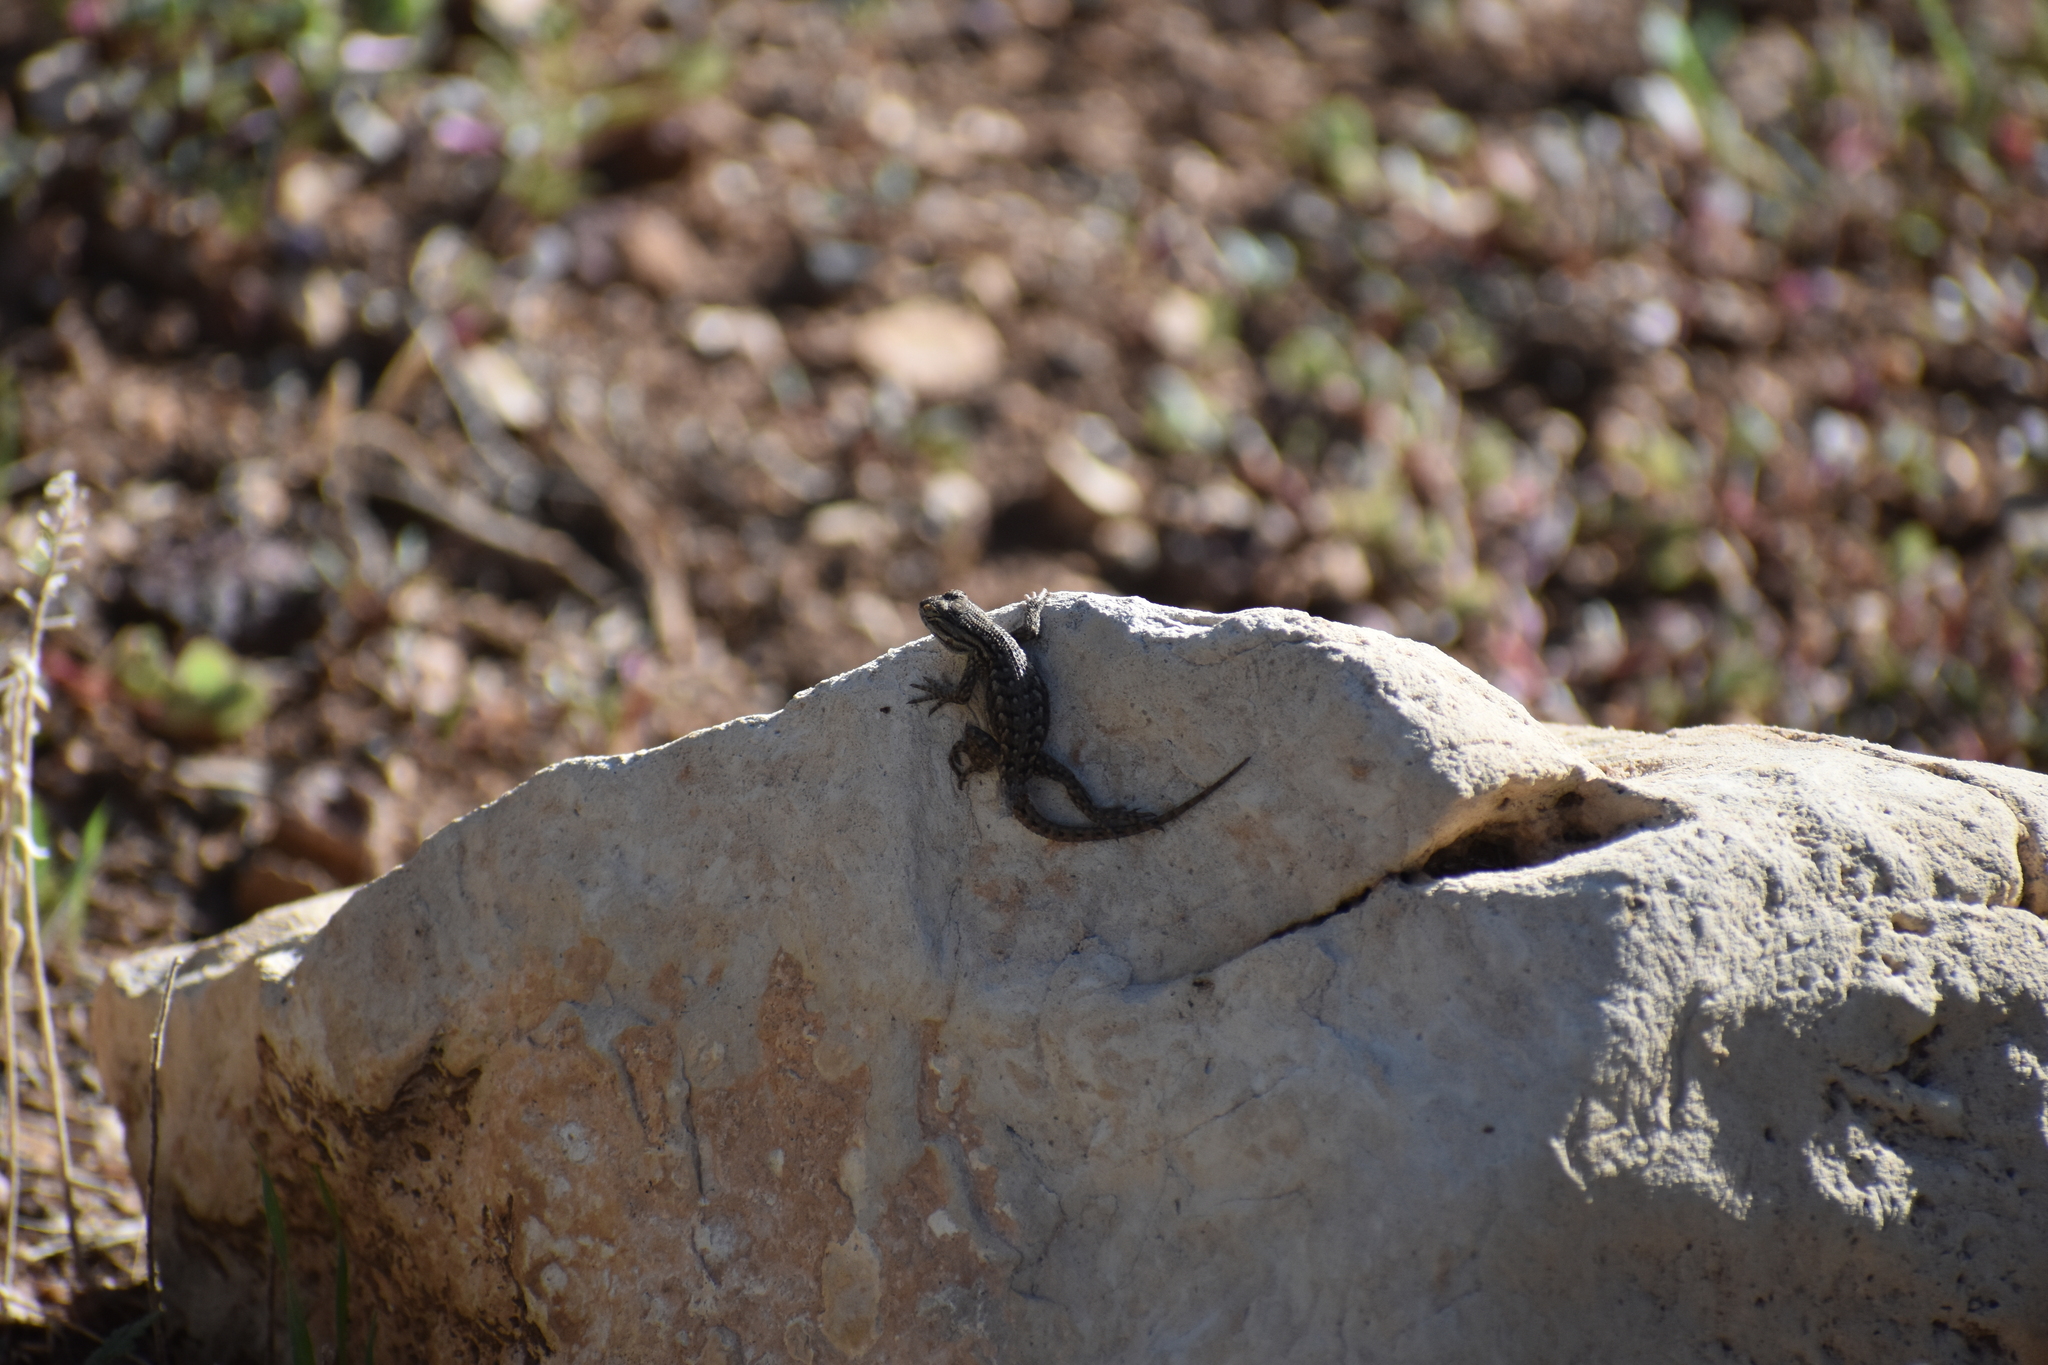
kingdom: Animalia
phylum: Chordata
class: Squamata
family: Phrynosomatidae
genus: Sceloporus
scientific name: Sceloporus tristichus
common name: Plateau fence lizard
